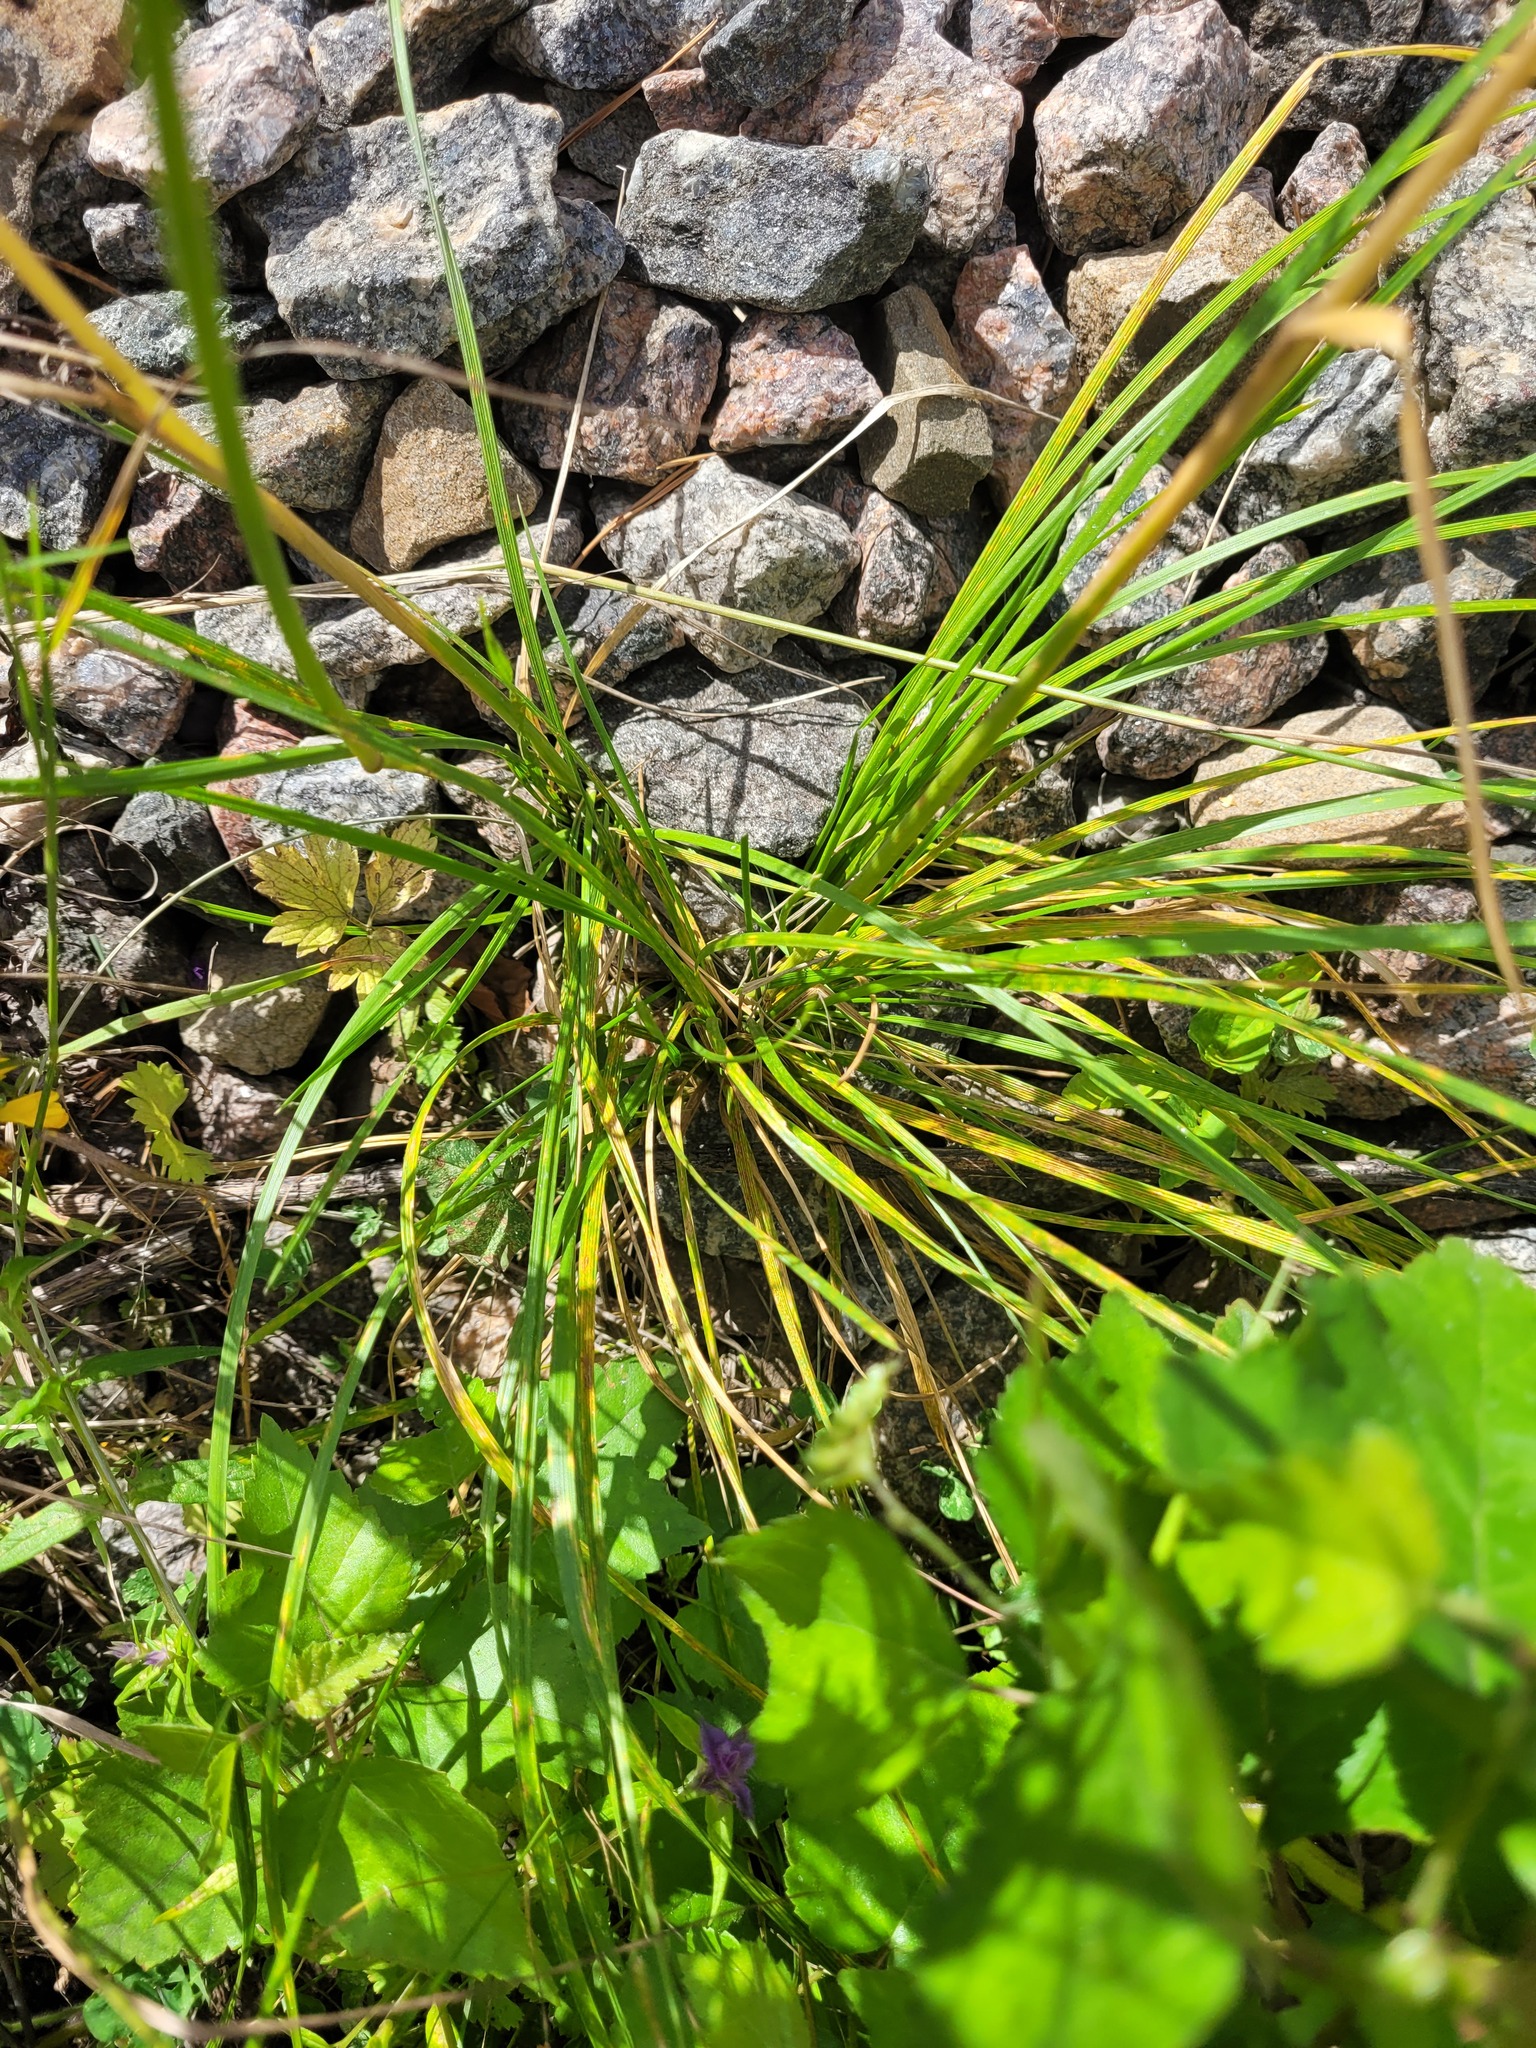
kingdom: Plantae
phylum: Tracheophyta
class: Liliopsida
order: Poales
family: Poaceae
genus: Deschampsia
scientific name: Deschampsia cespitosa
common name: Tufted hair-grass
